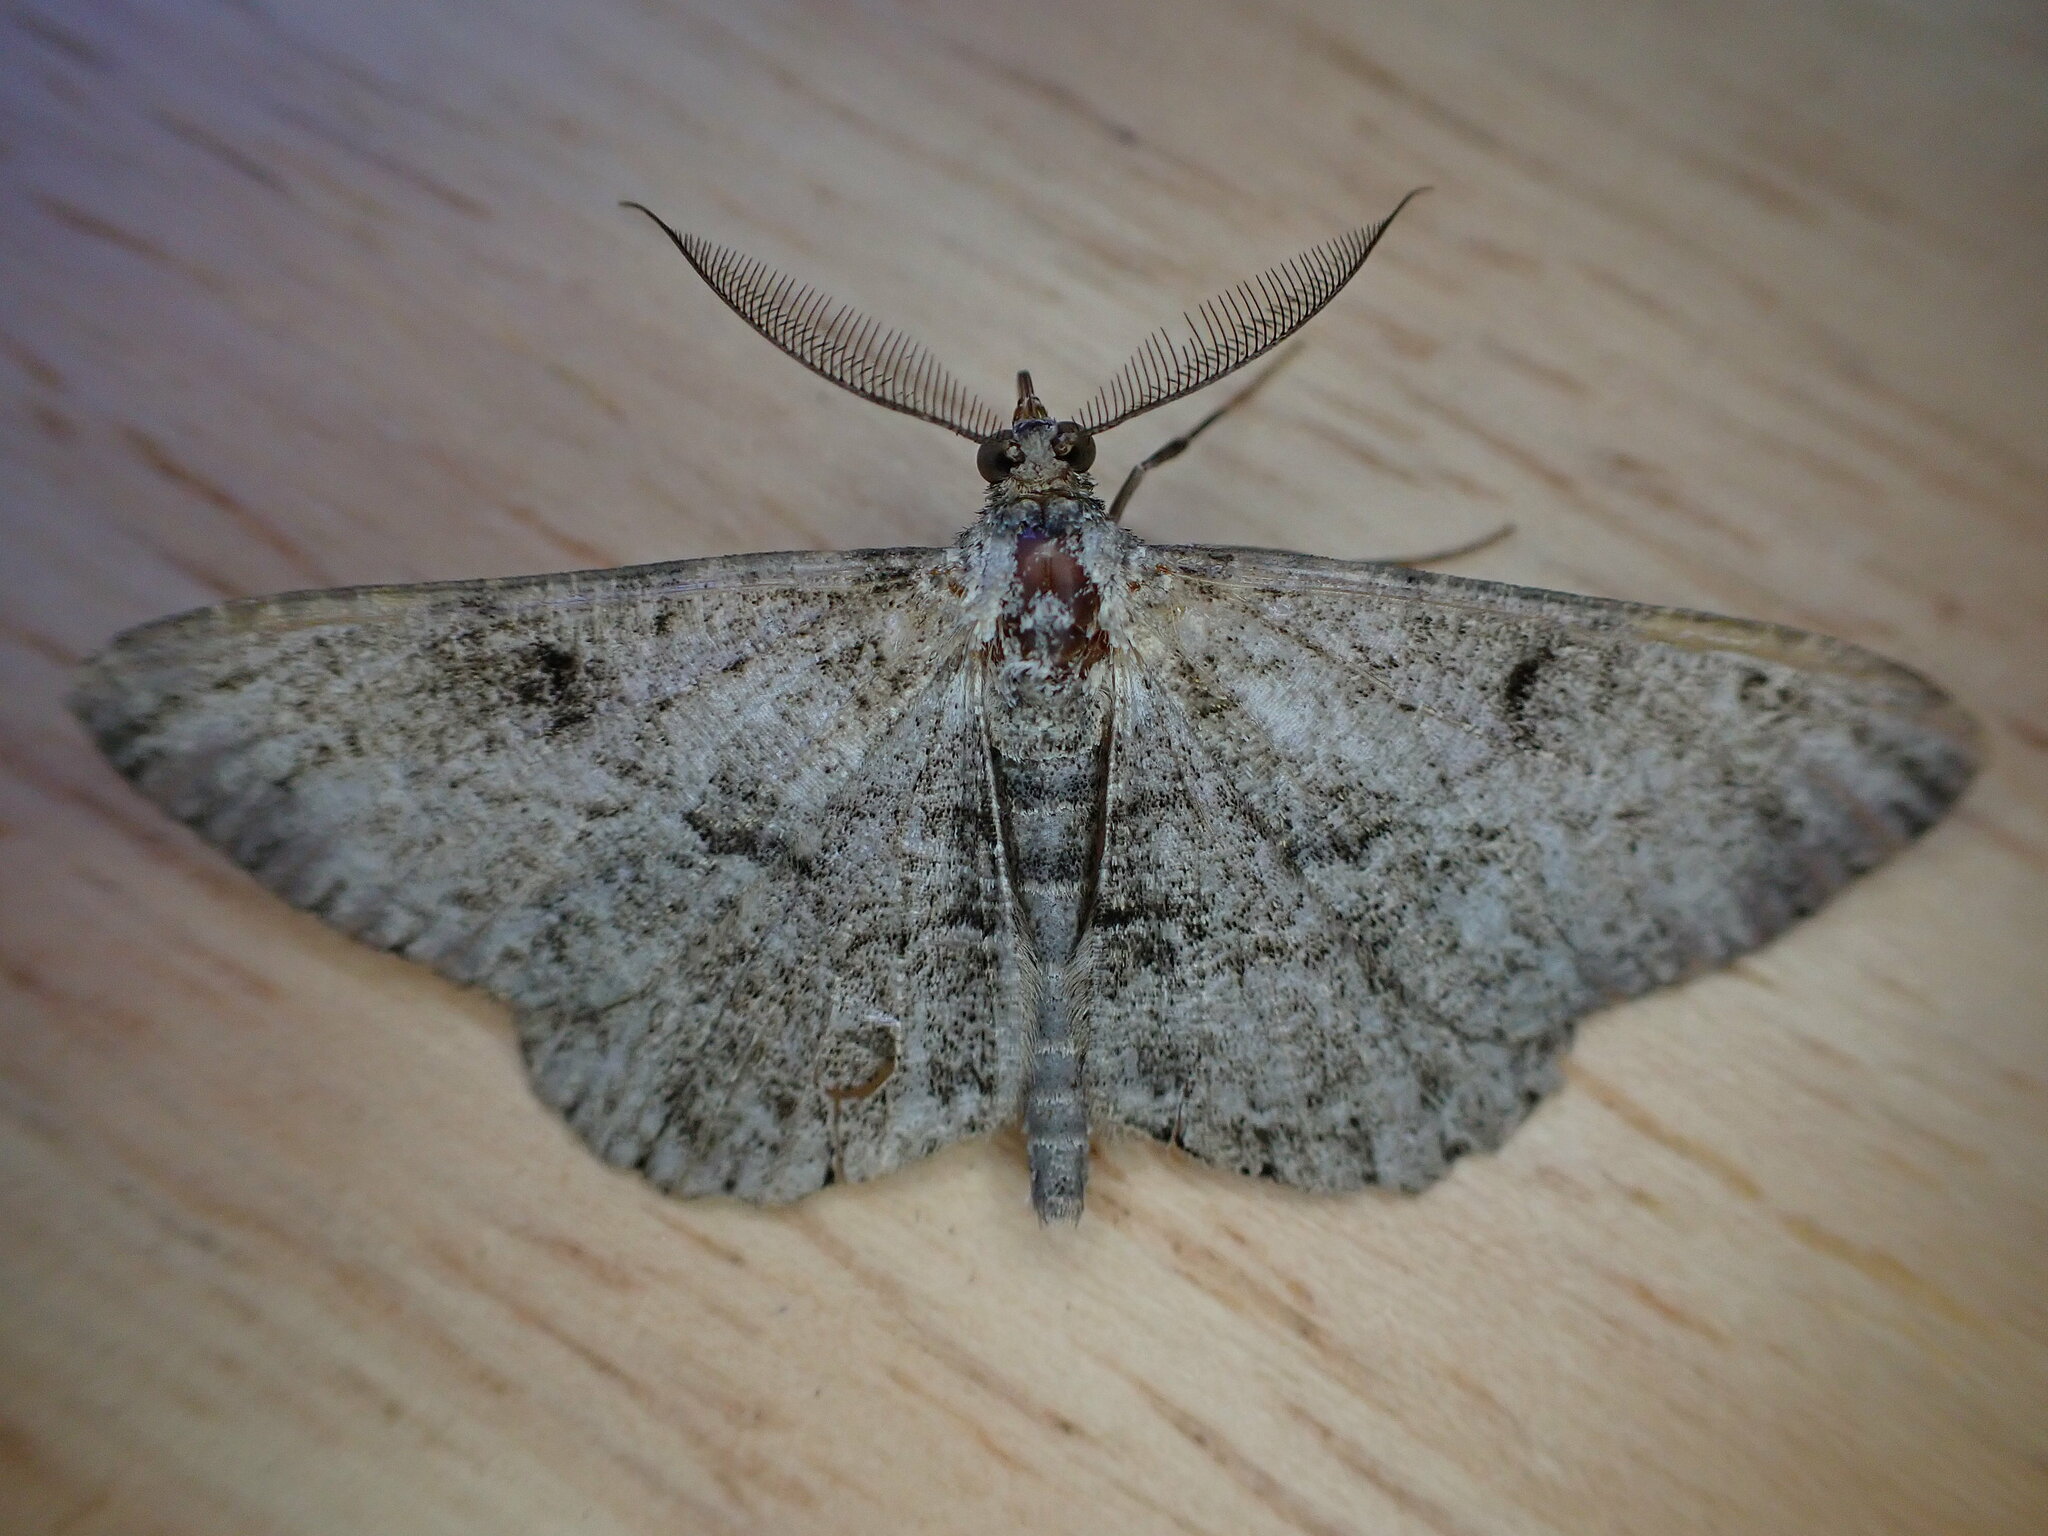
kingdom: Animalia
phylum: Arthropoda
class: Insecta
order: Lepidoptera
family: Geometridae
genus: Peribatodes
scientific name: Peribatodes rhomboidaria
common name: Willow beauty
